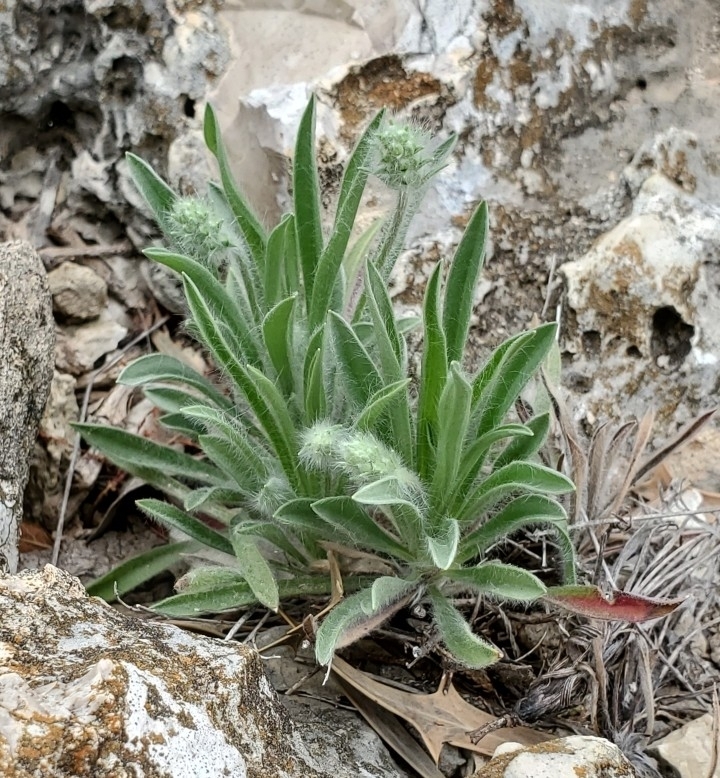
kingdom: Plantae
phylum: Tracheophyta
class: Magnoliopsida
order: Lamiales
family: Plantaginaceae
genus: Plantago
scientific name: Plantago helleri
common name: Heller's plantain
